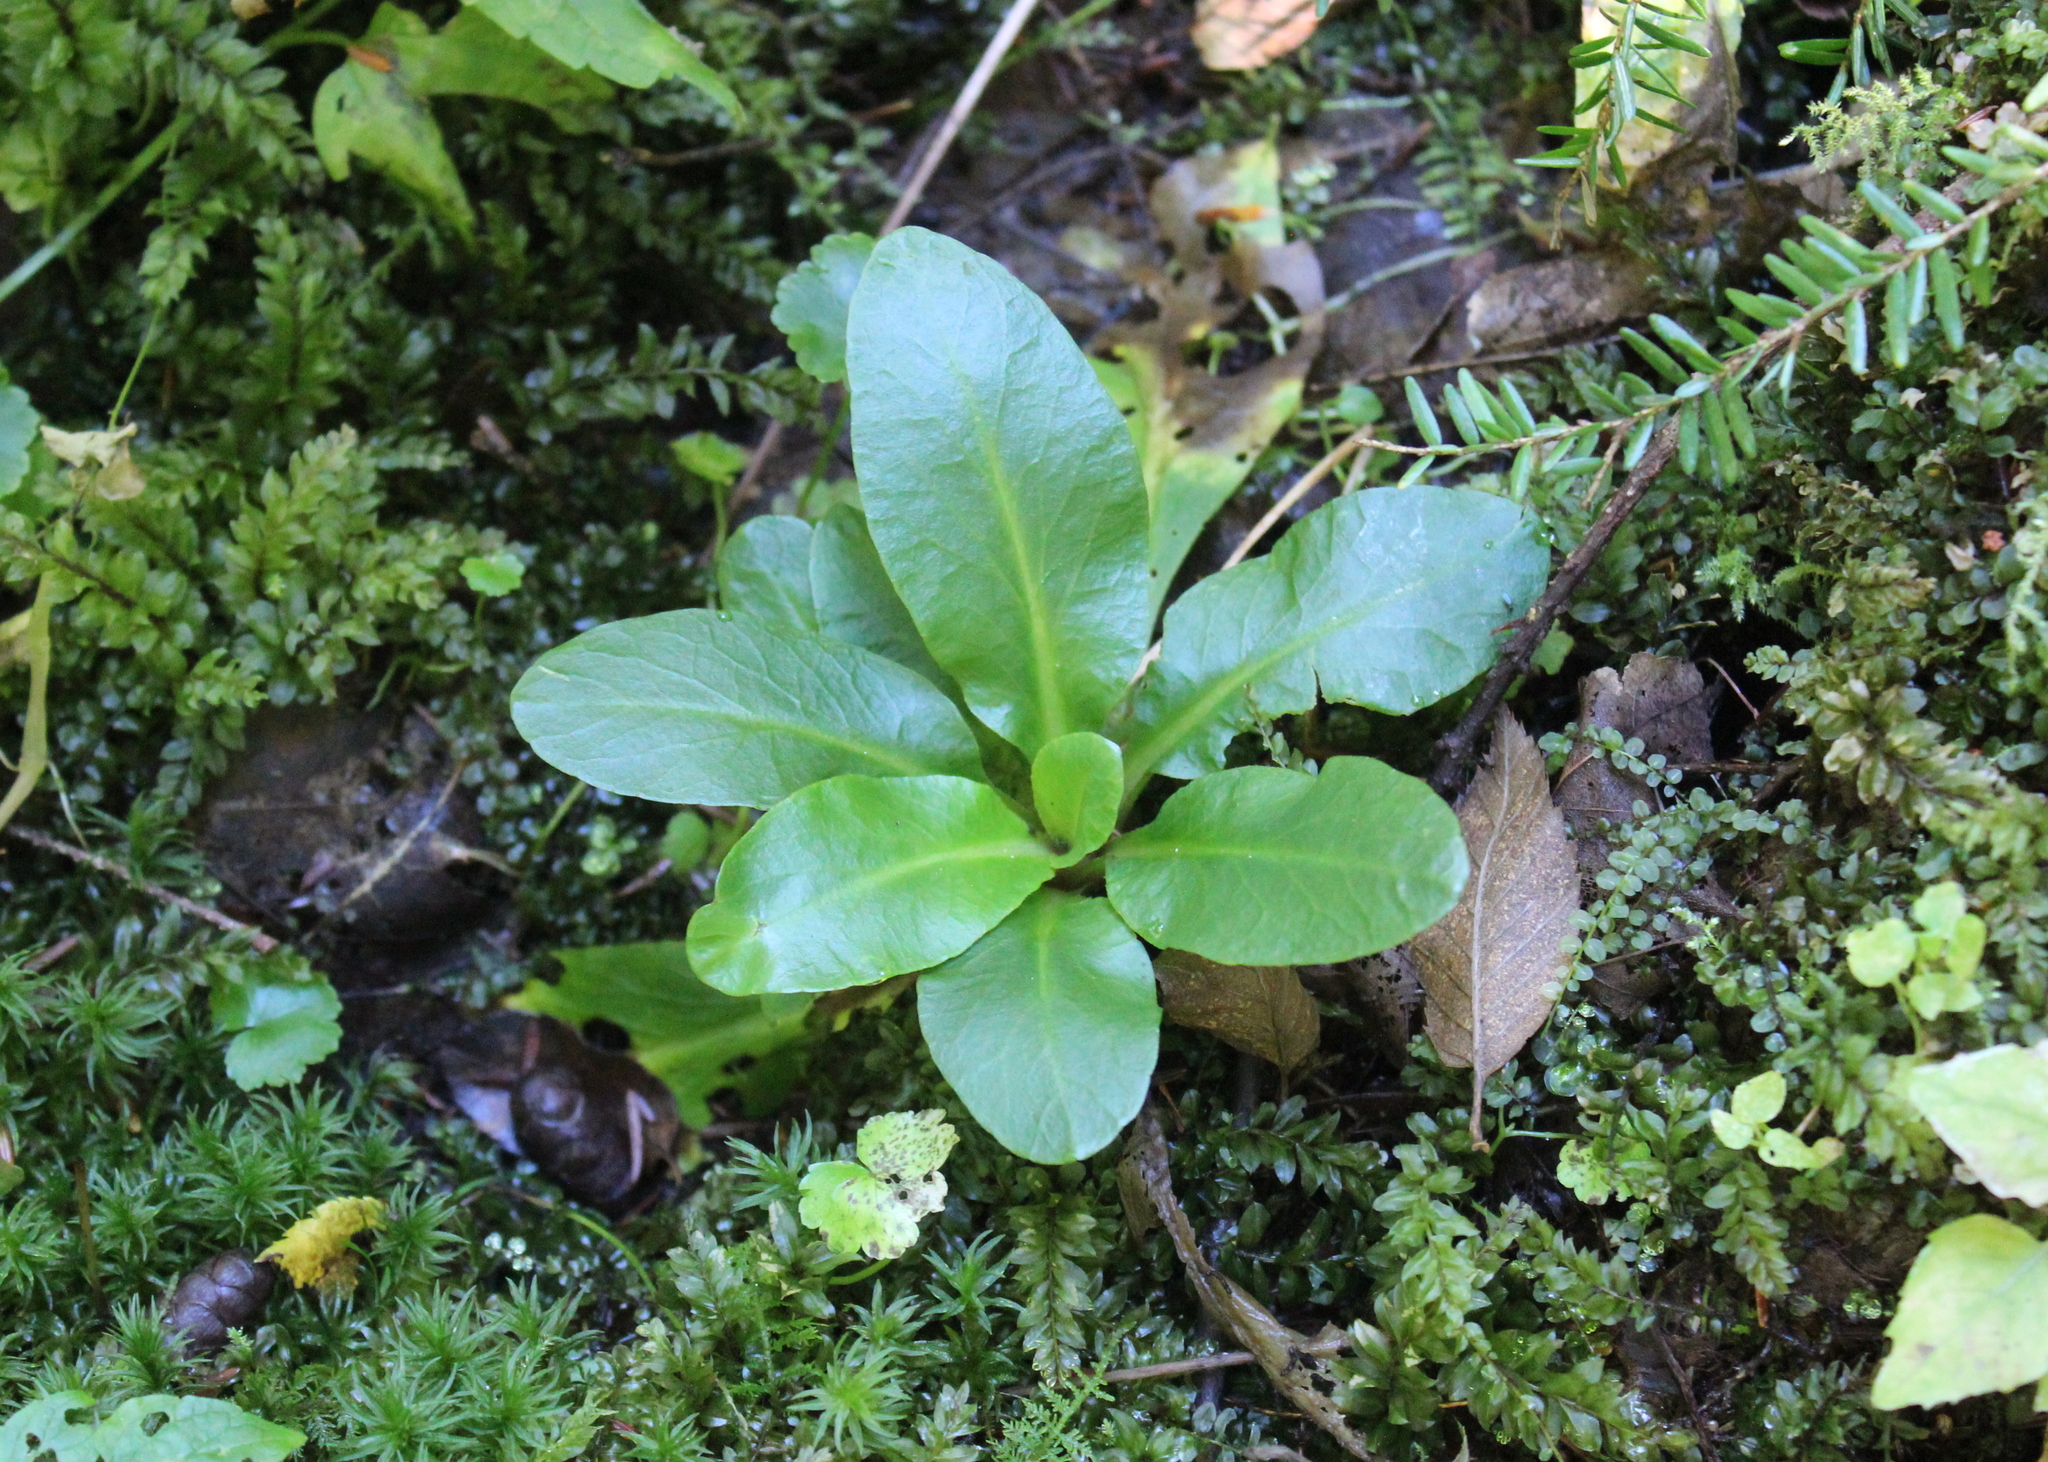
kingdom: Plantae
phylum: Tracheophyta
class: Magnoliopsida
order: Saxifragales
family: Saxifragaceae
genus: Micranthes
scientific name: Micranthes pensylvanica
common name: Marsh saxifrage
